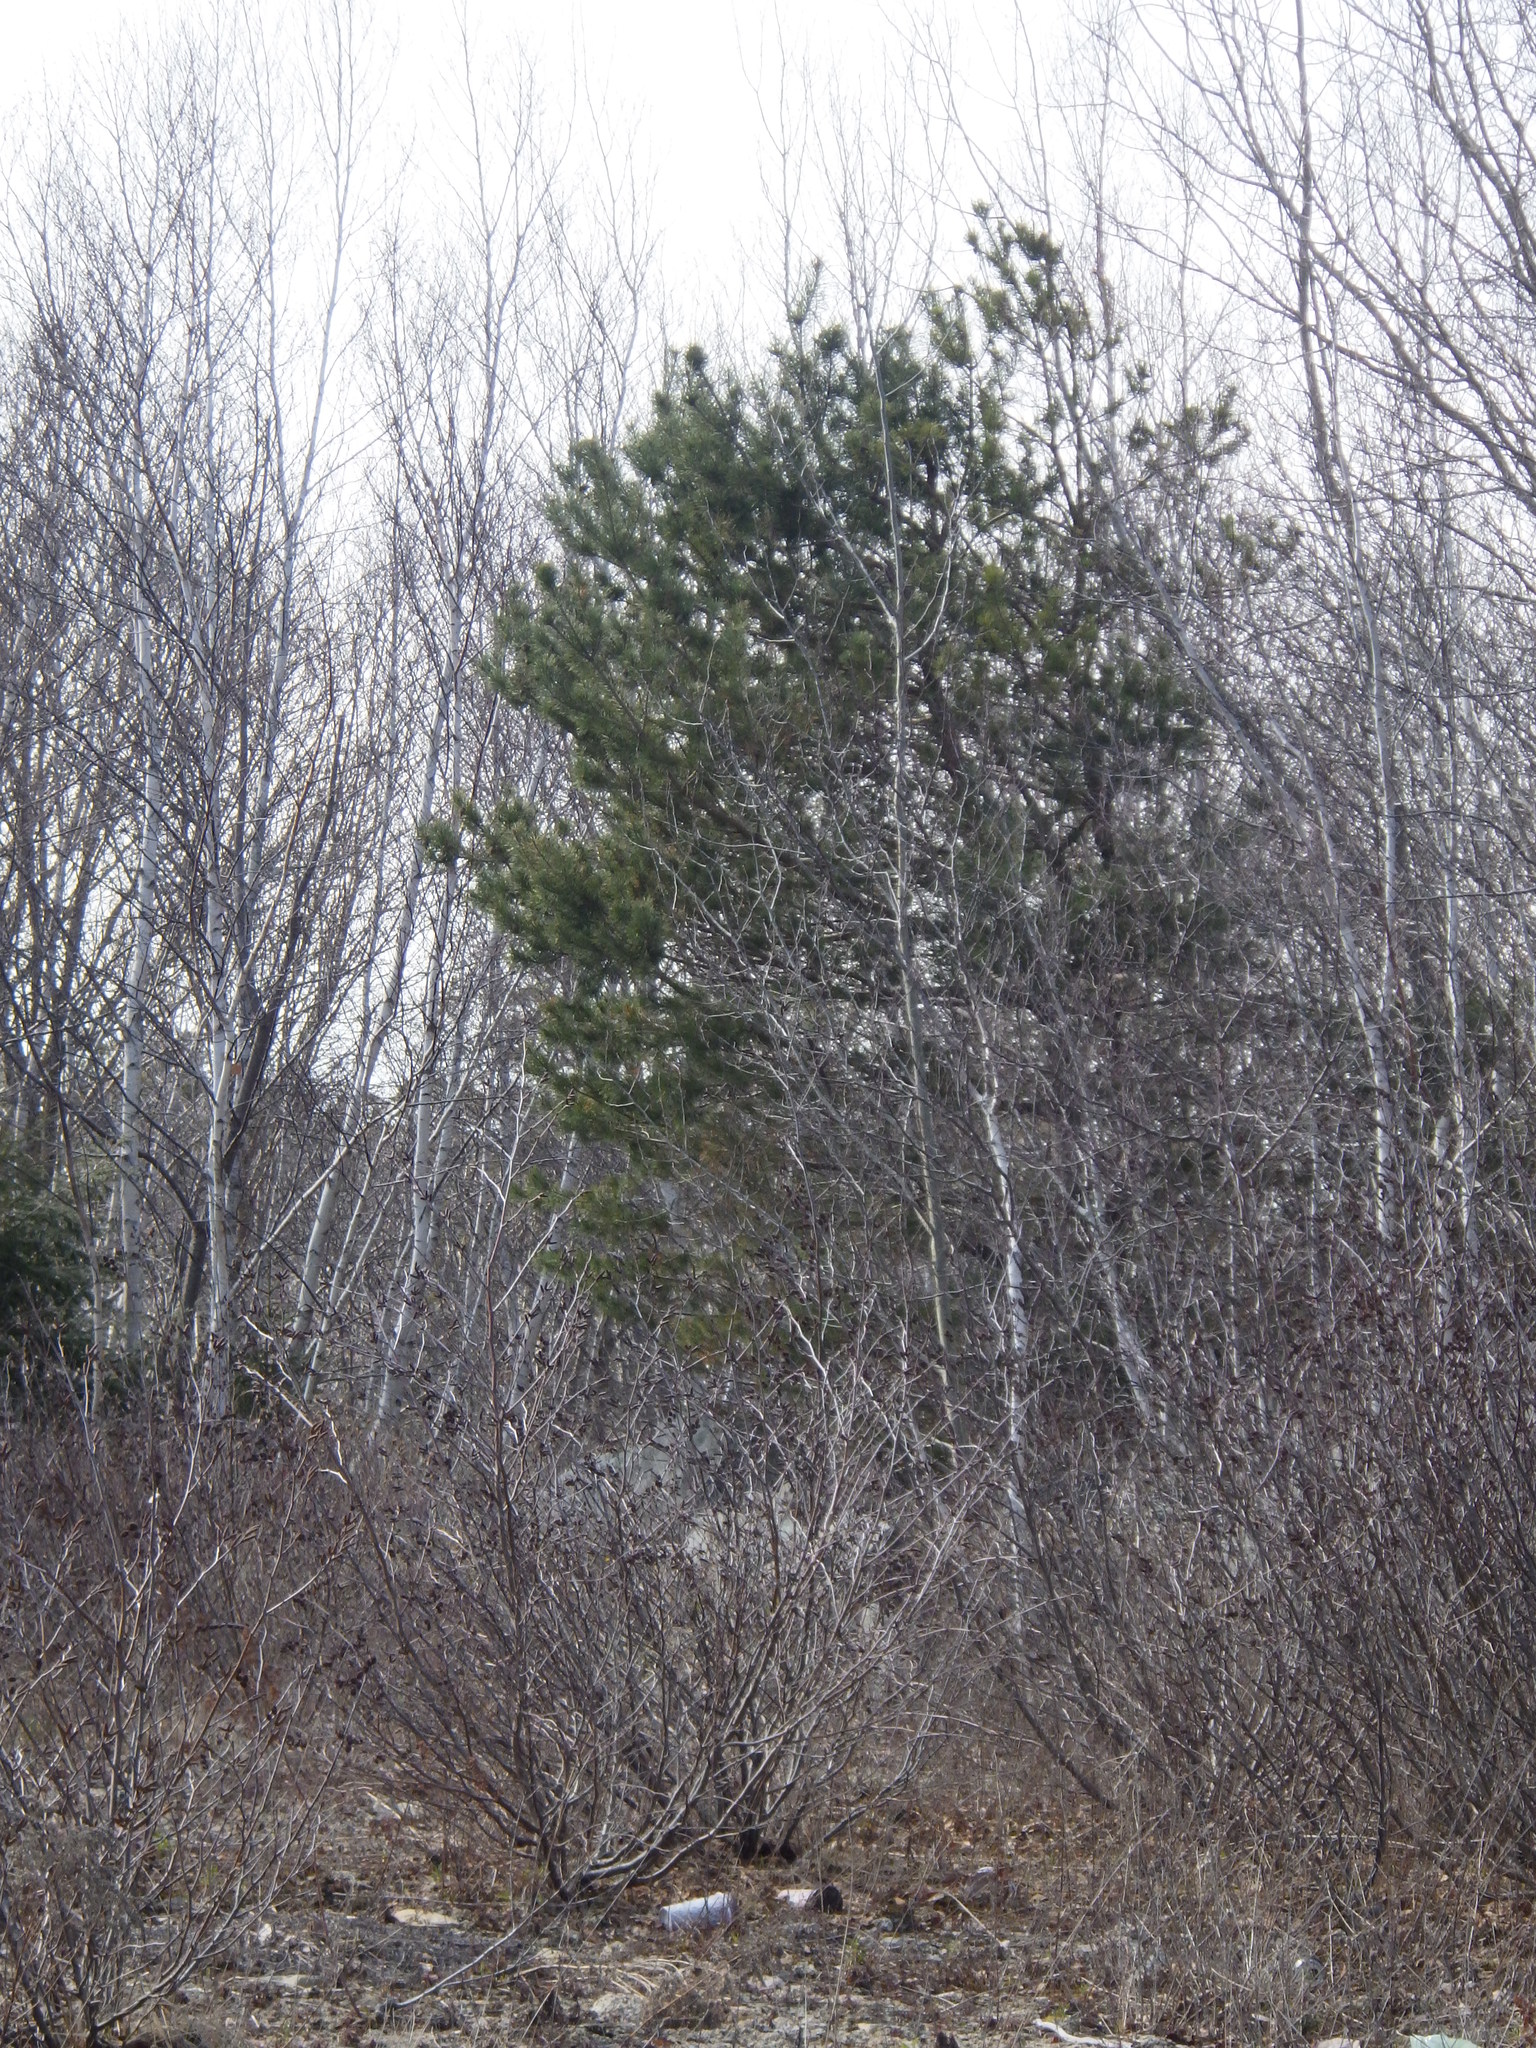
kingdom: Plantae
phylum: Tracheophyta
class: Pinopsida
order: Pinales
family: Pinaceae
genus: Pinus
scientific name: Pinus resinosa
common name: Norway pine
